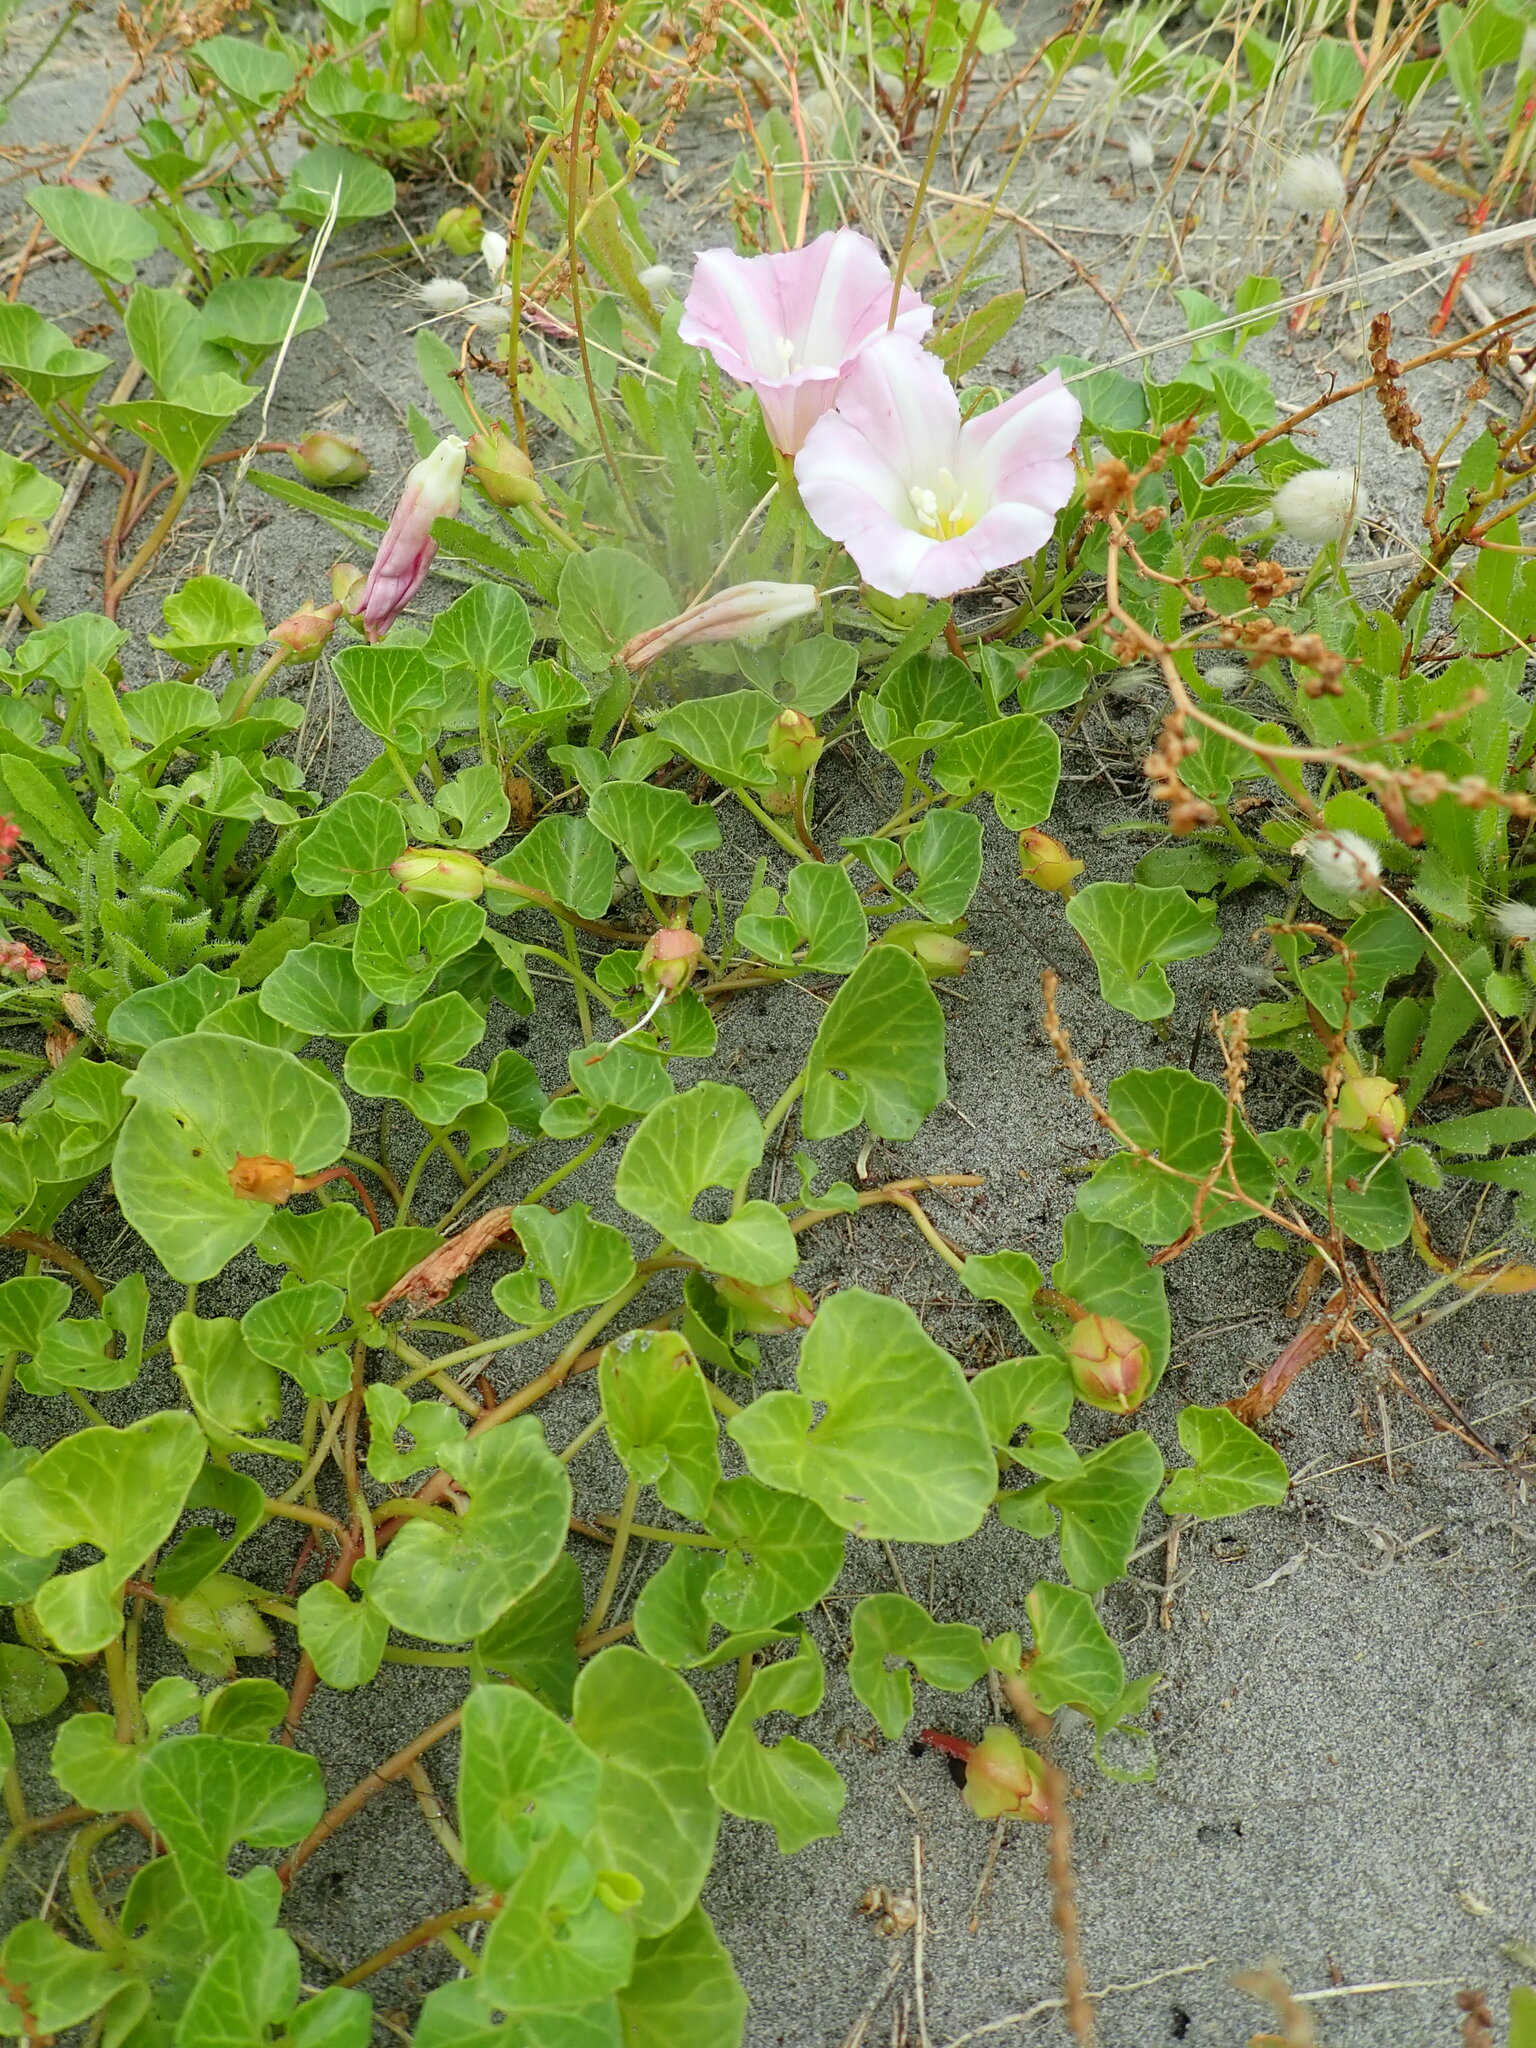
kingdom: Plantae
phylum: Tracheophyta
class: Magnoliopsida
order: Solanales
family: Convolvulaceae
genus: Calystegia
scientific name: Calystegia soldanella
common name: Sea bindweed
